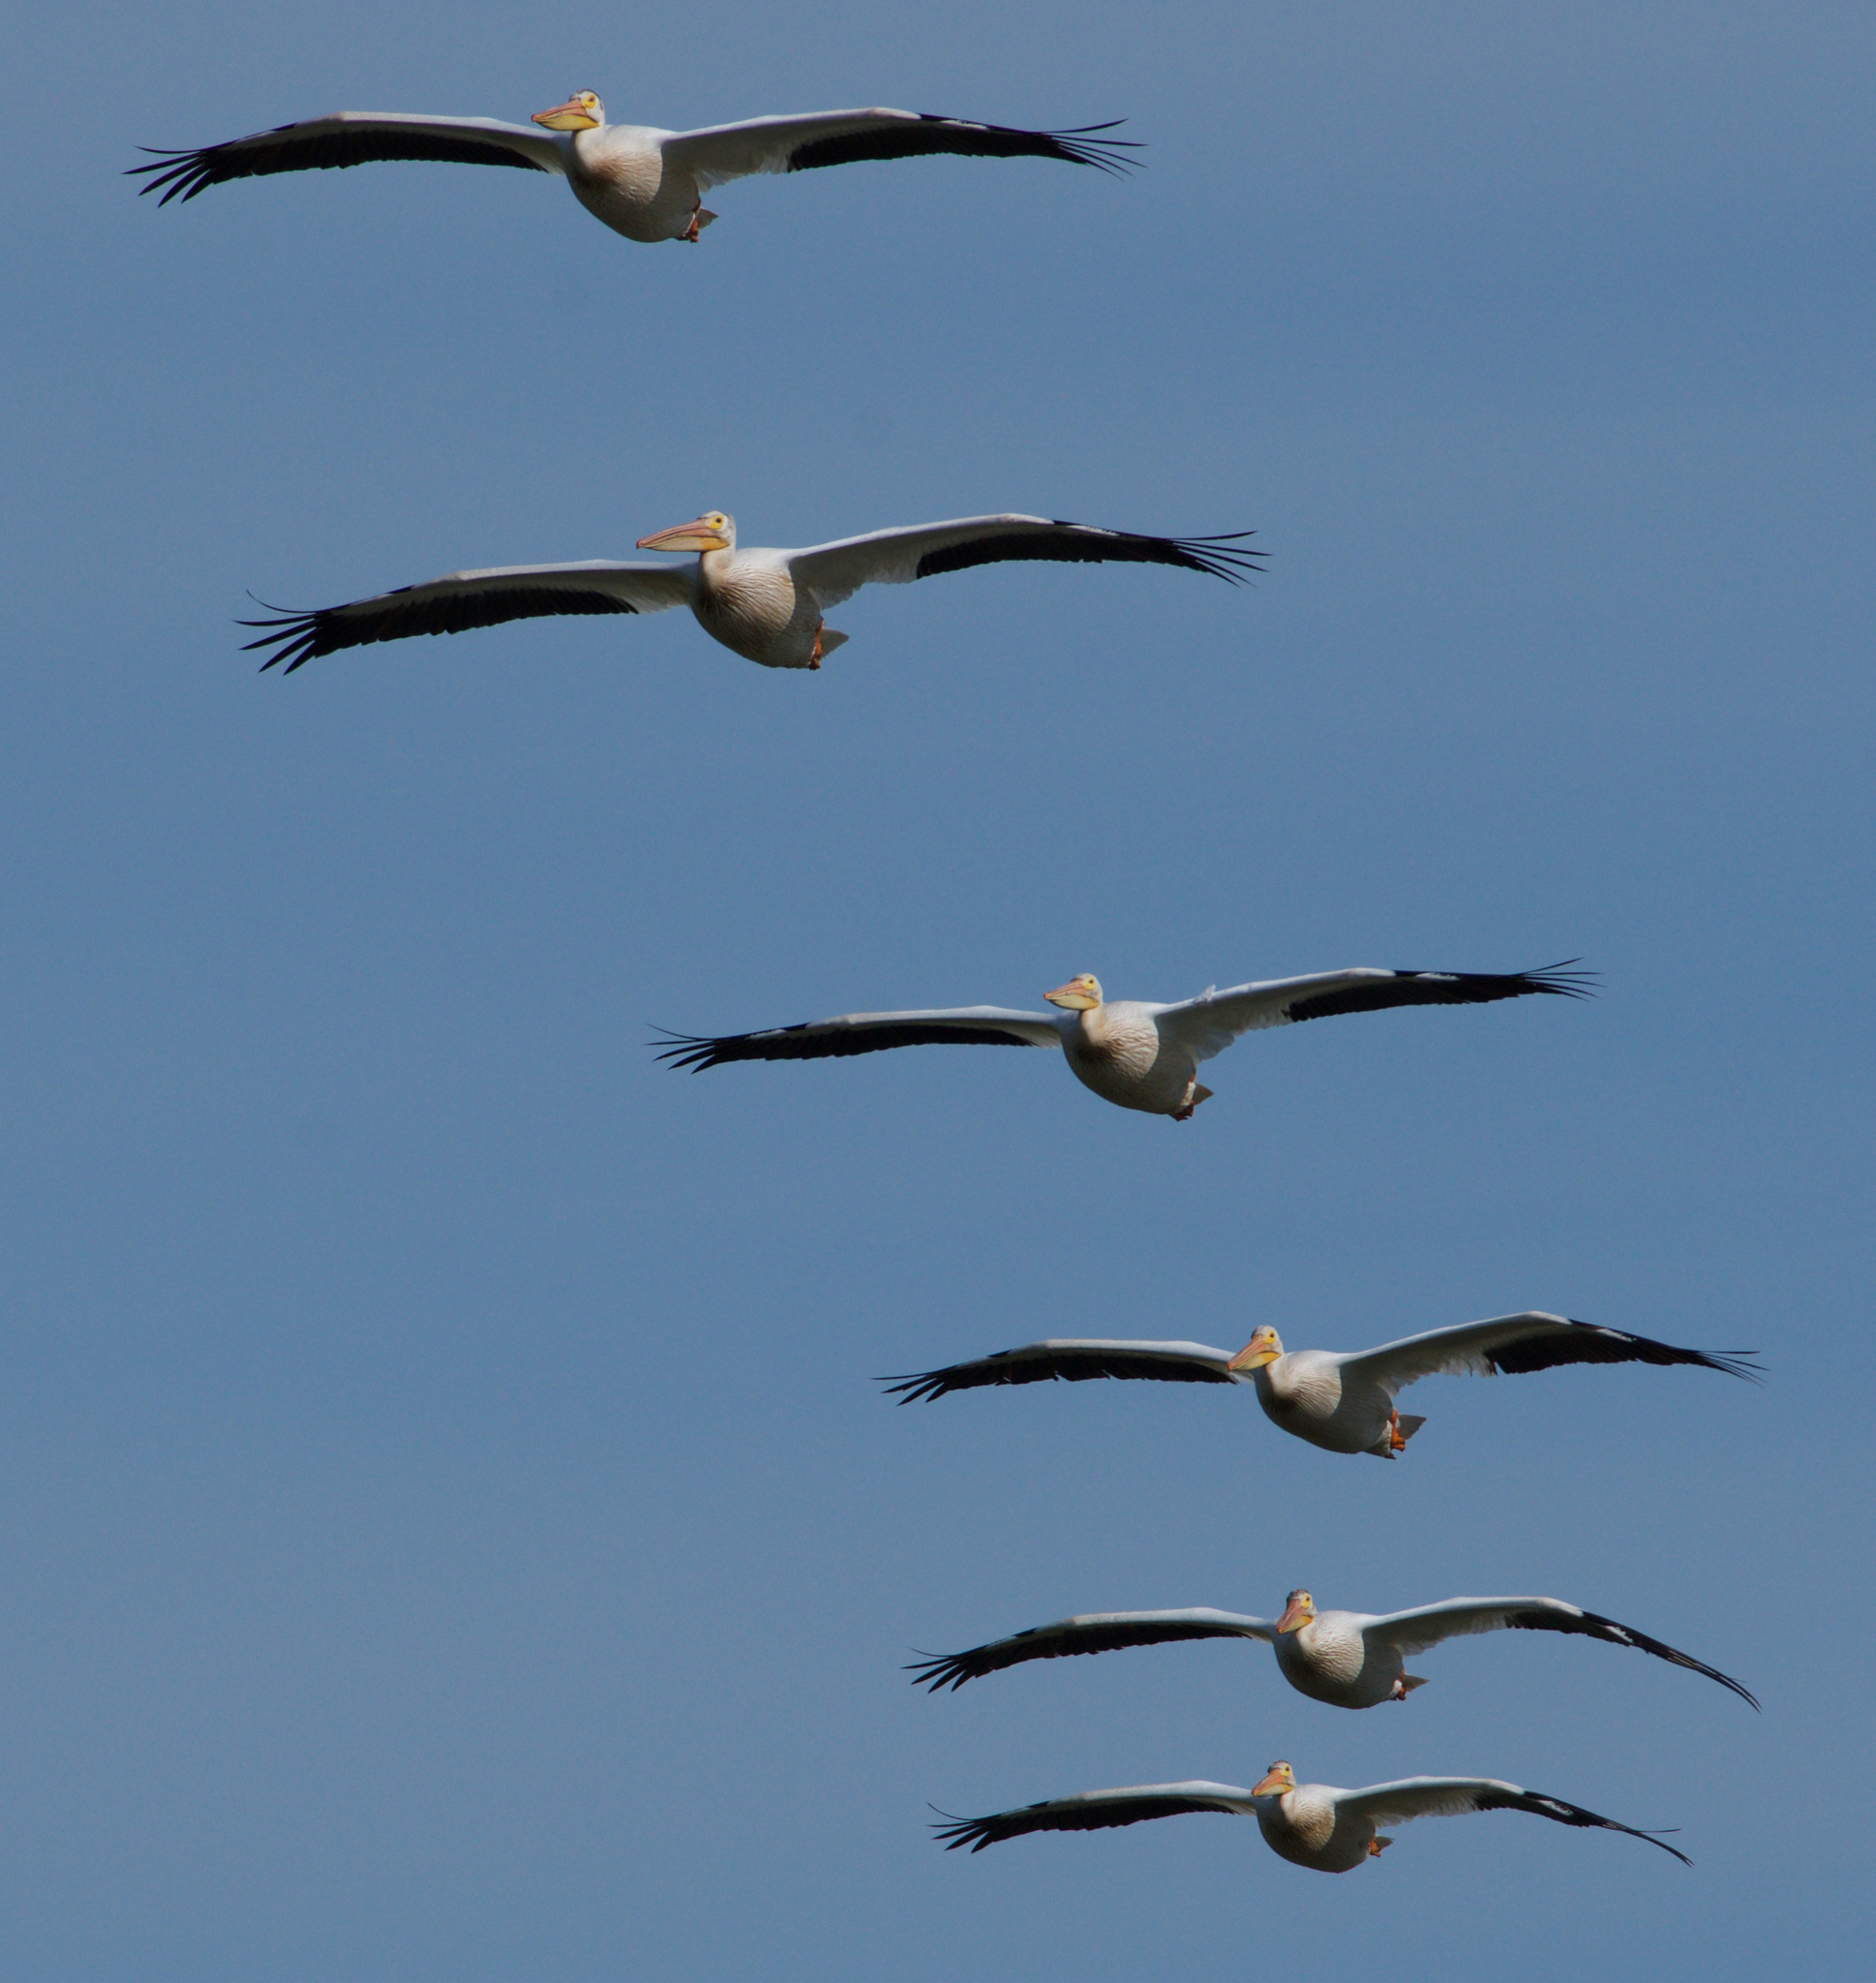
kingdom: Animalia
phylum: Chordata
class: Aves
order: Pelecaniformes
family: Pelecanidae
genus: Pelecanus
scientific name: Pelecanus erythrorhynchos
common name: American white pelican
